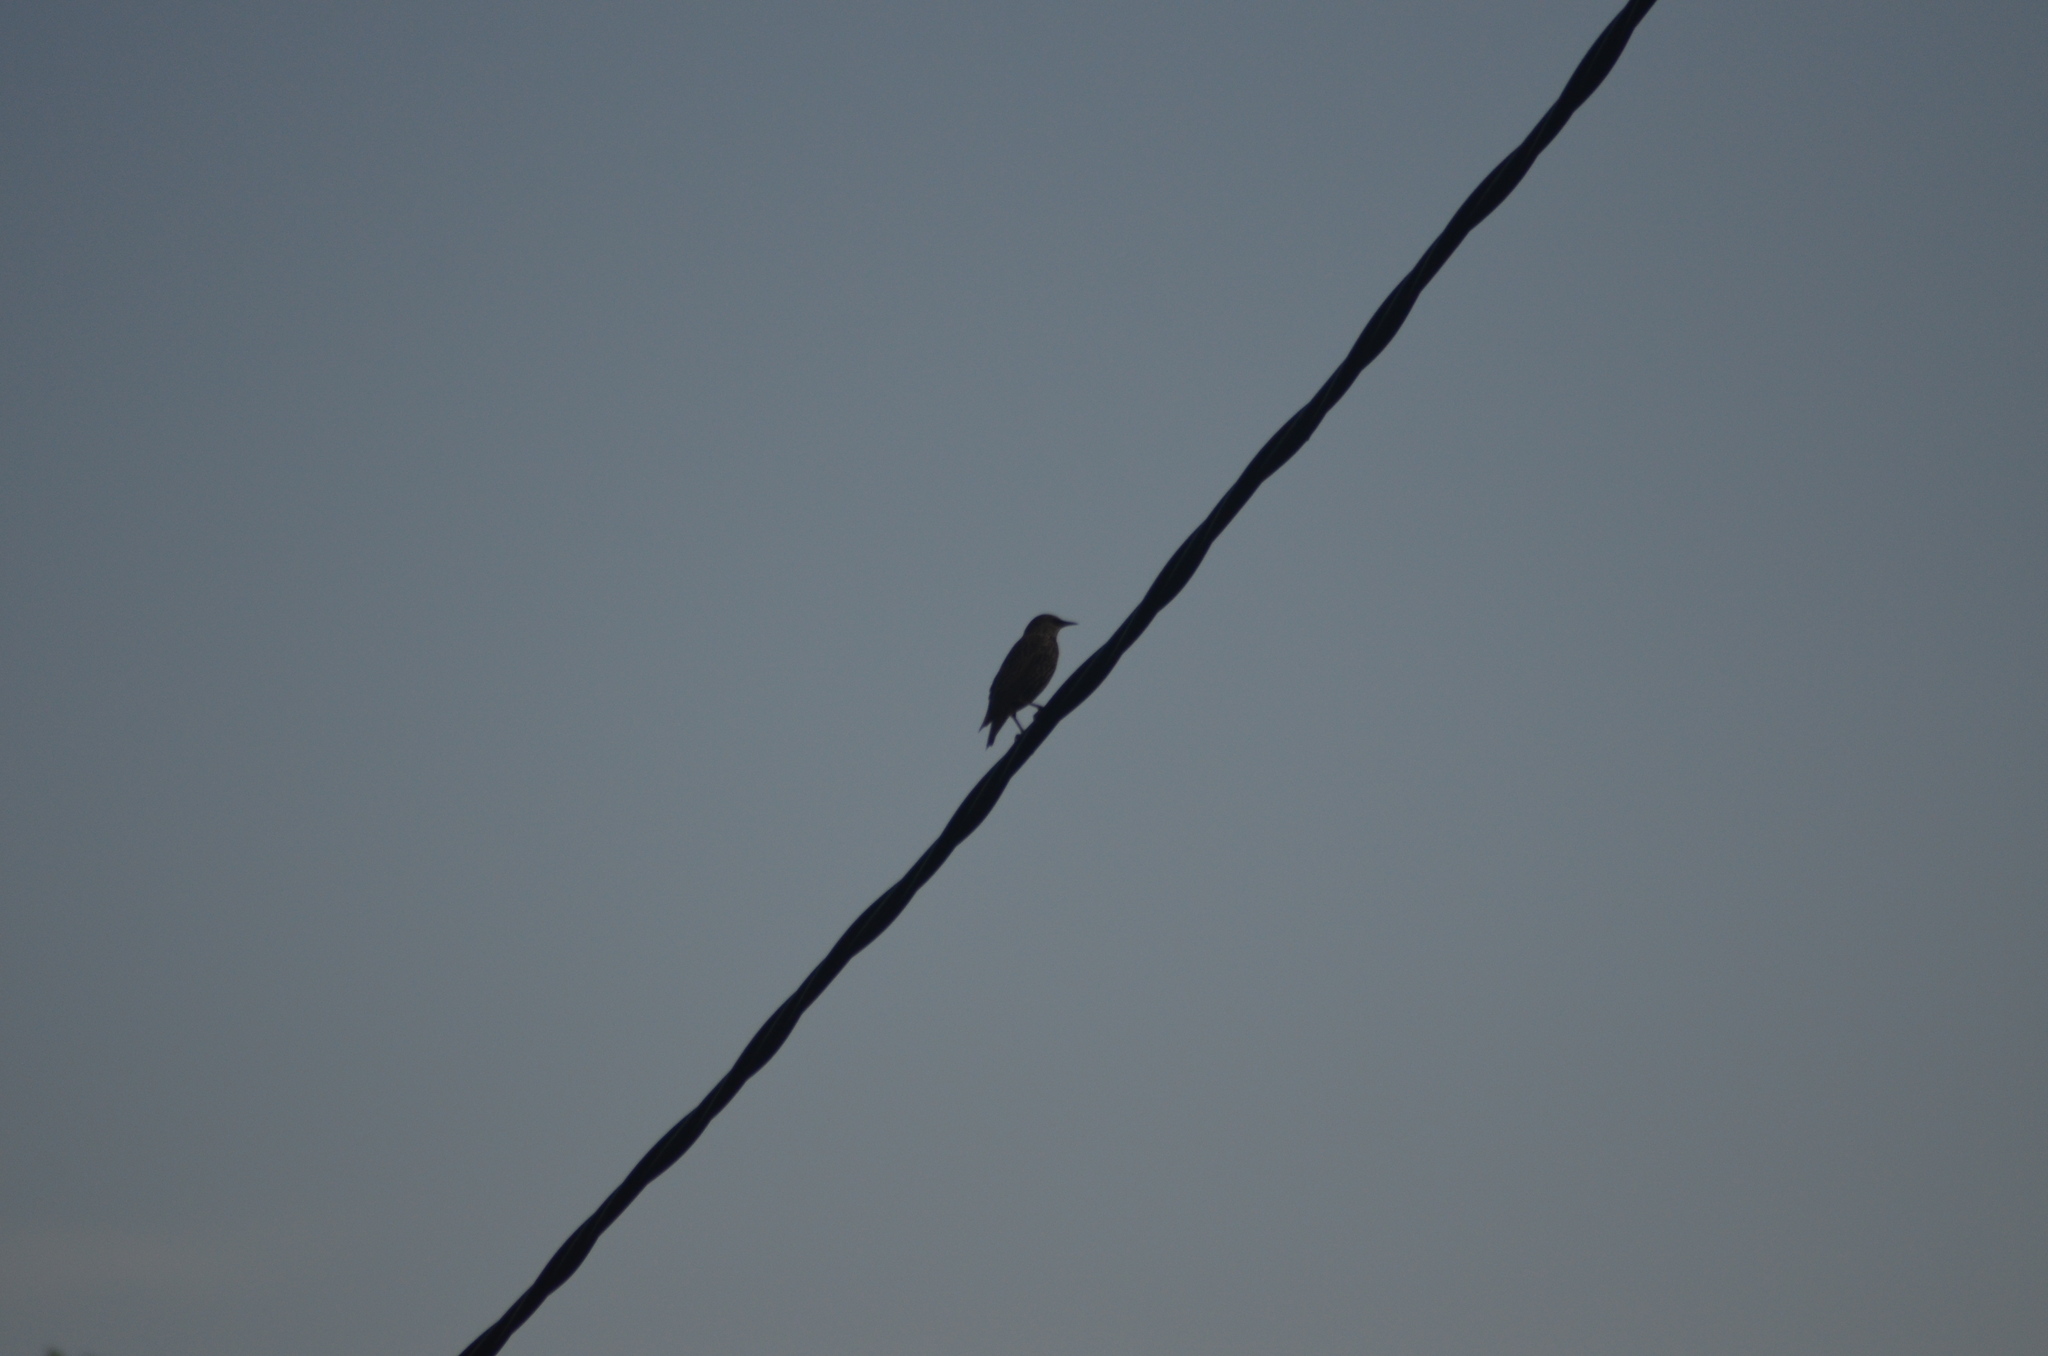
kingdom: Animalia
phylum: Chordata
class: Aves
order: Passeriformes
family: Sturnidae
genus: Sturnus
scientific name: Sturnus vulgaris
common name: Common starling
